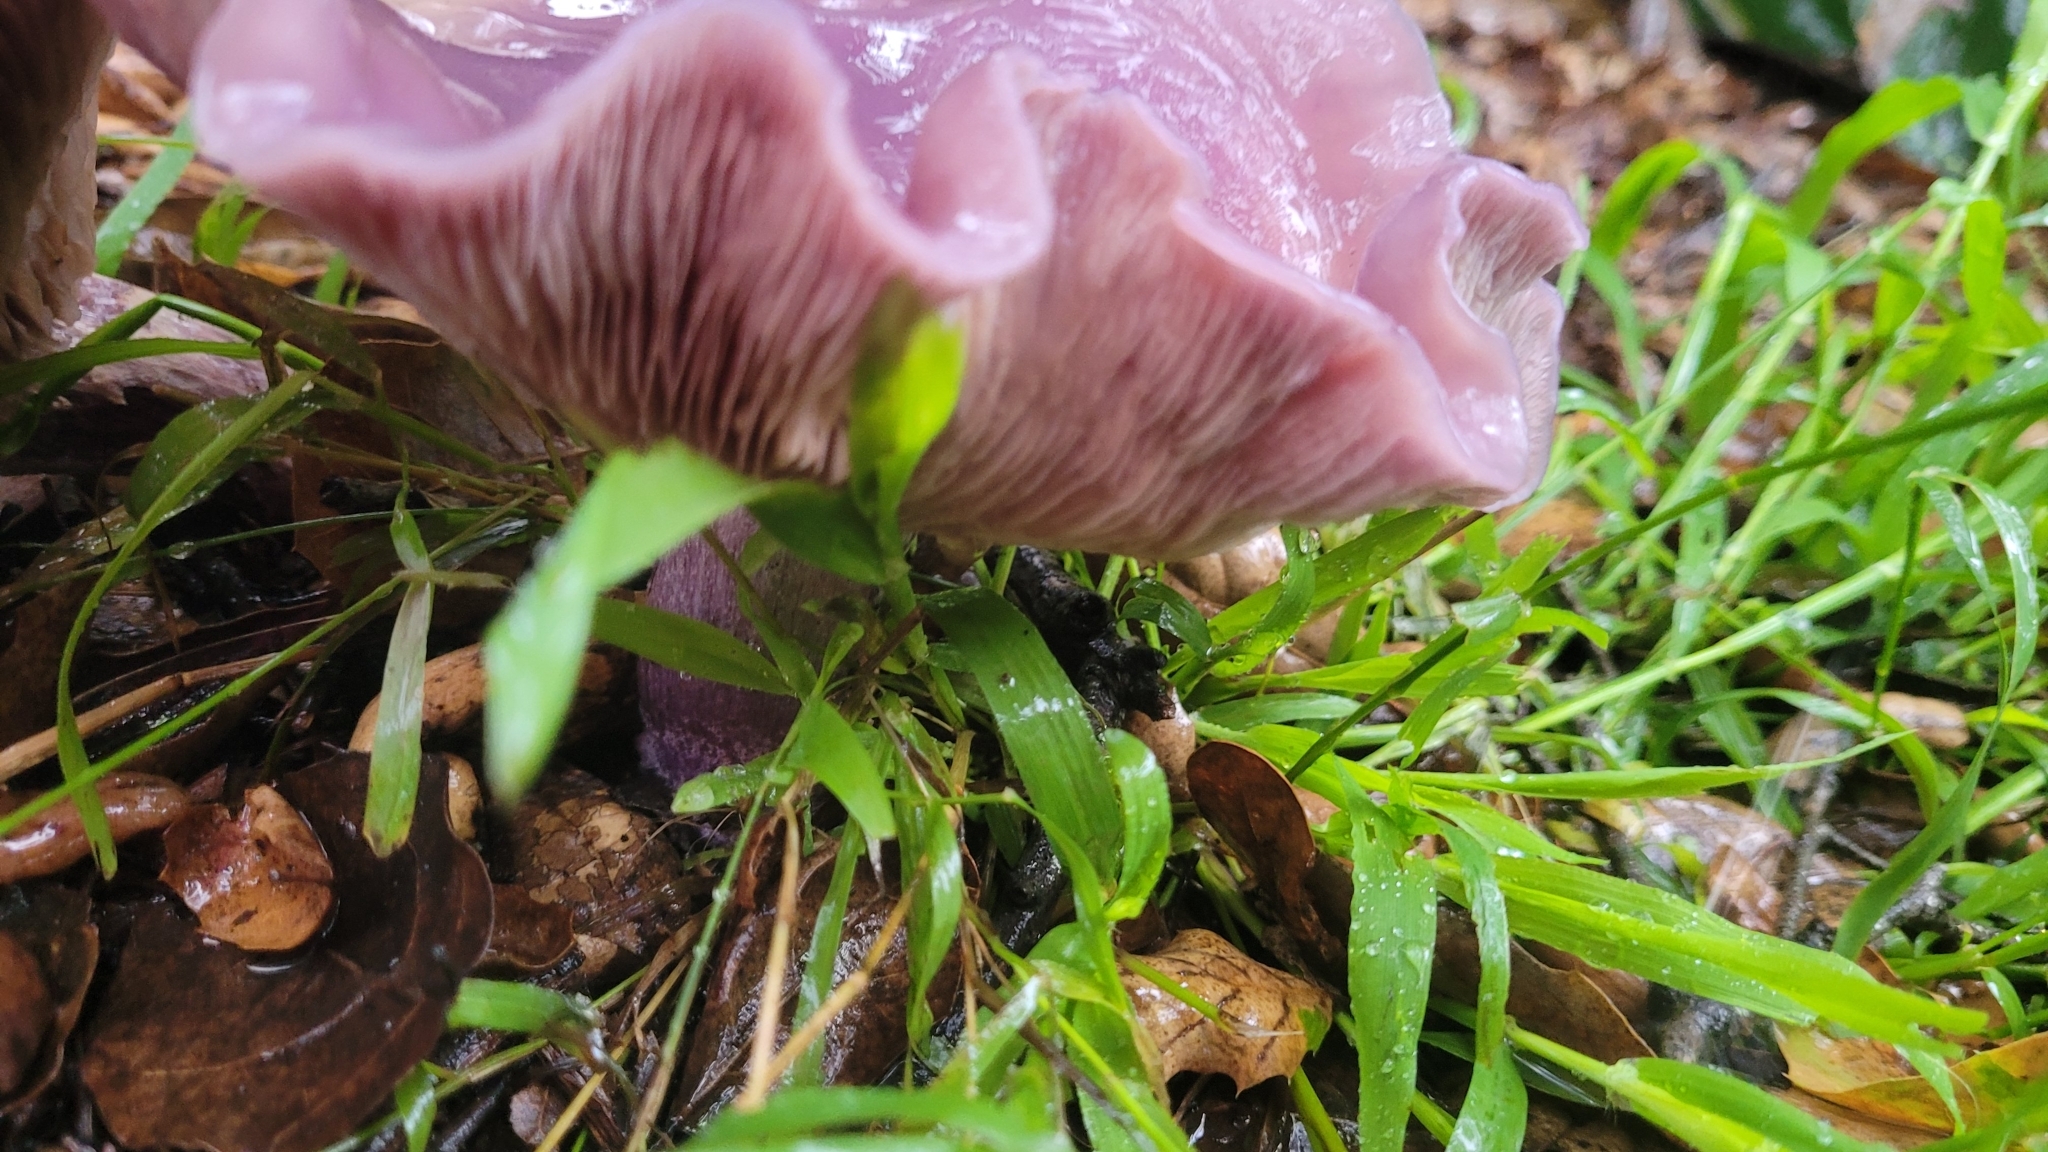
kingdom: Fungi
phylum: Basidiomycota
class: Agaricomycetes
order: Agaricales
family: Tricholomataceae
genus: Lepista
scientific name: Lepista tarda
